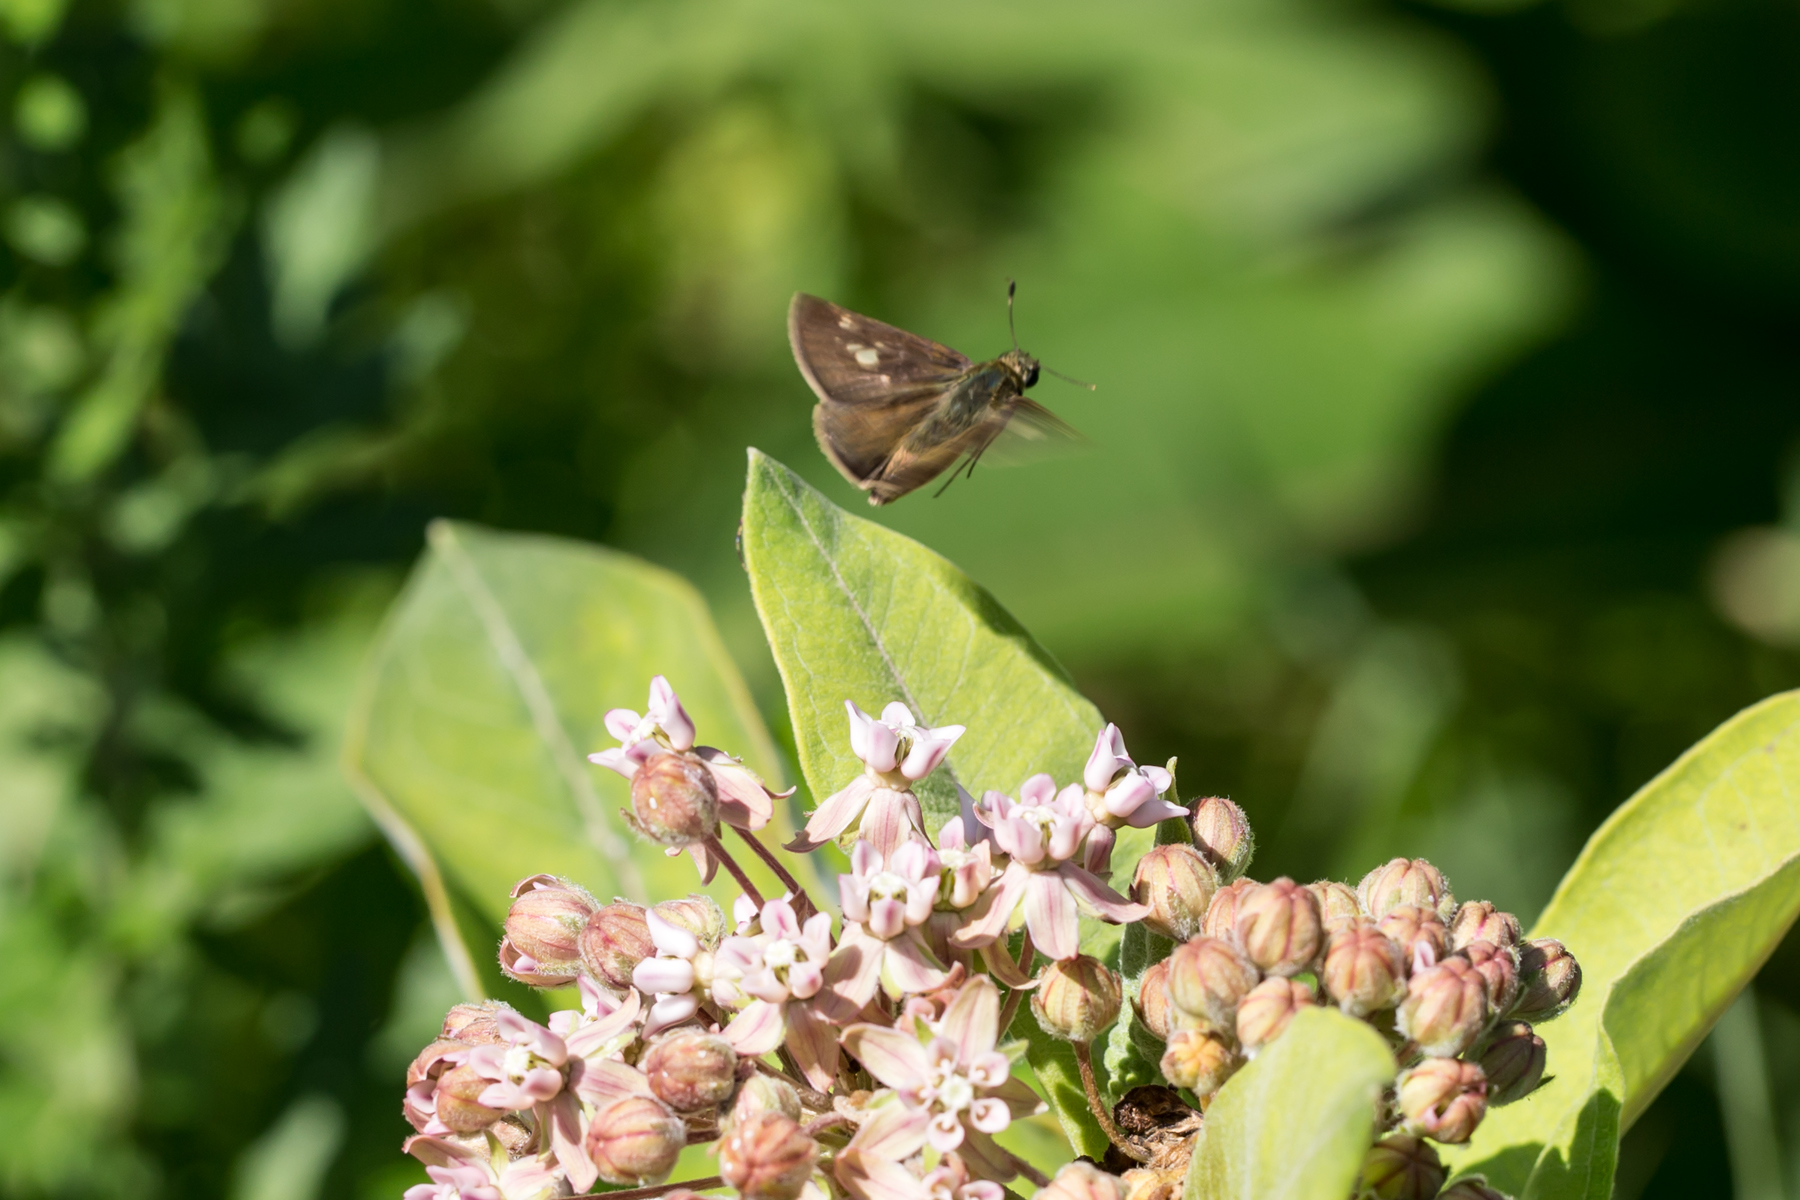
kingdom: Animalia
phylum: Arthropoda
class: Insecta
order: Lepidoptera
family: Hesperiidae
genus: Vernia
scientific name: Vernia verna
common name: Little glassywing
